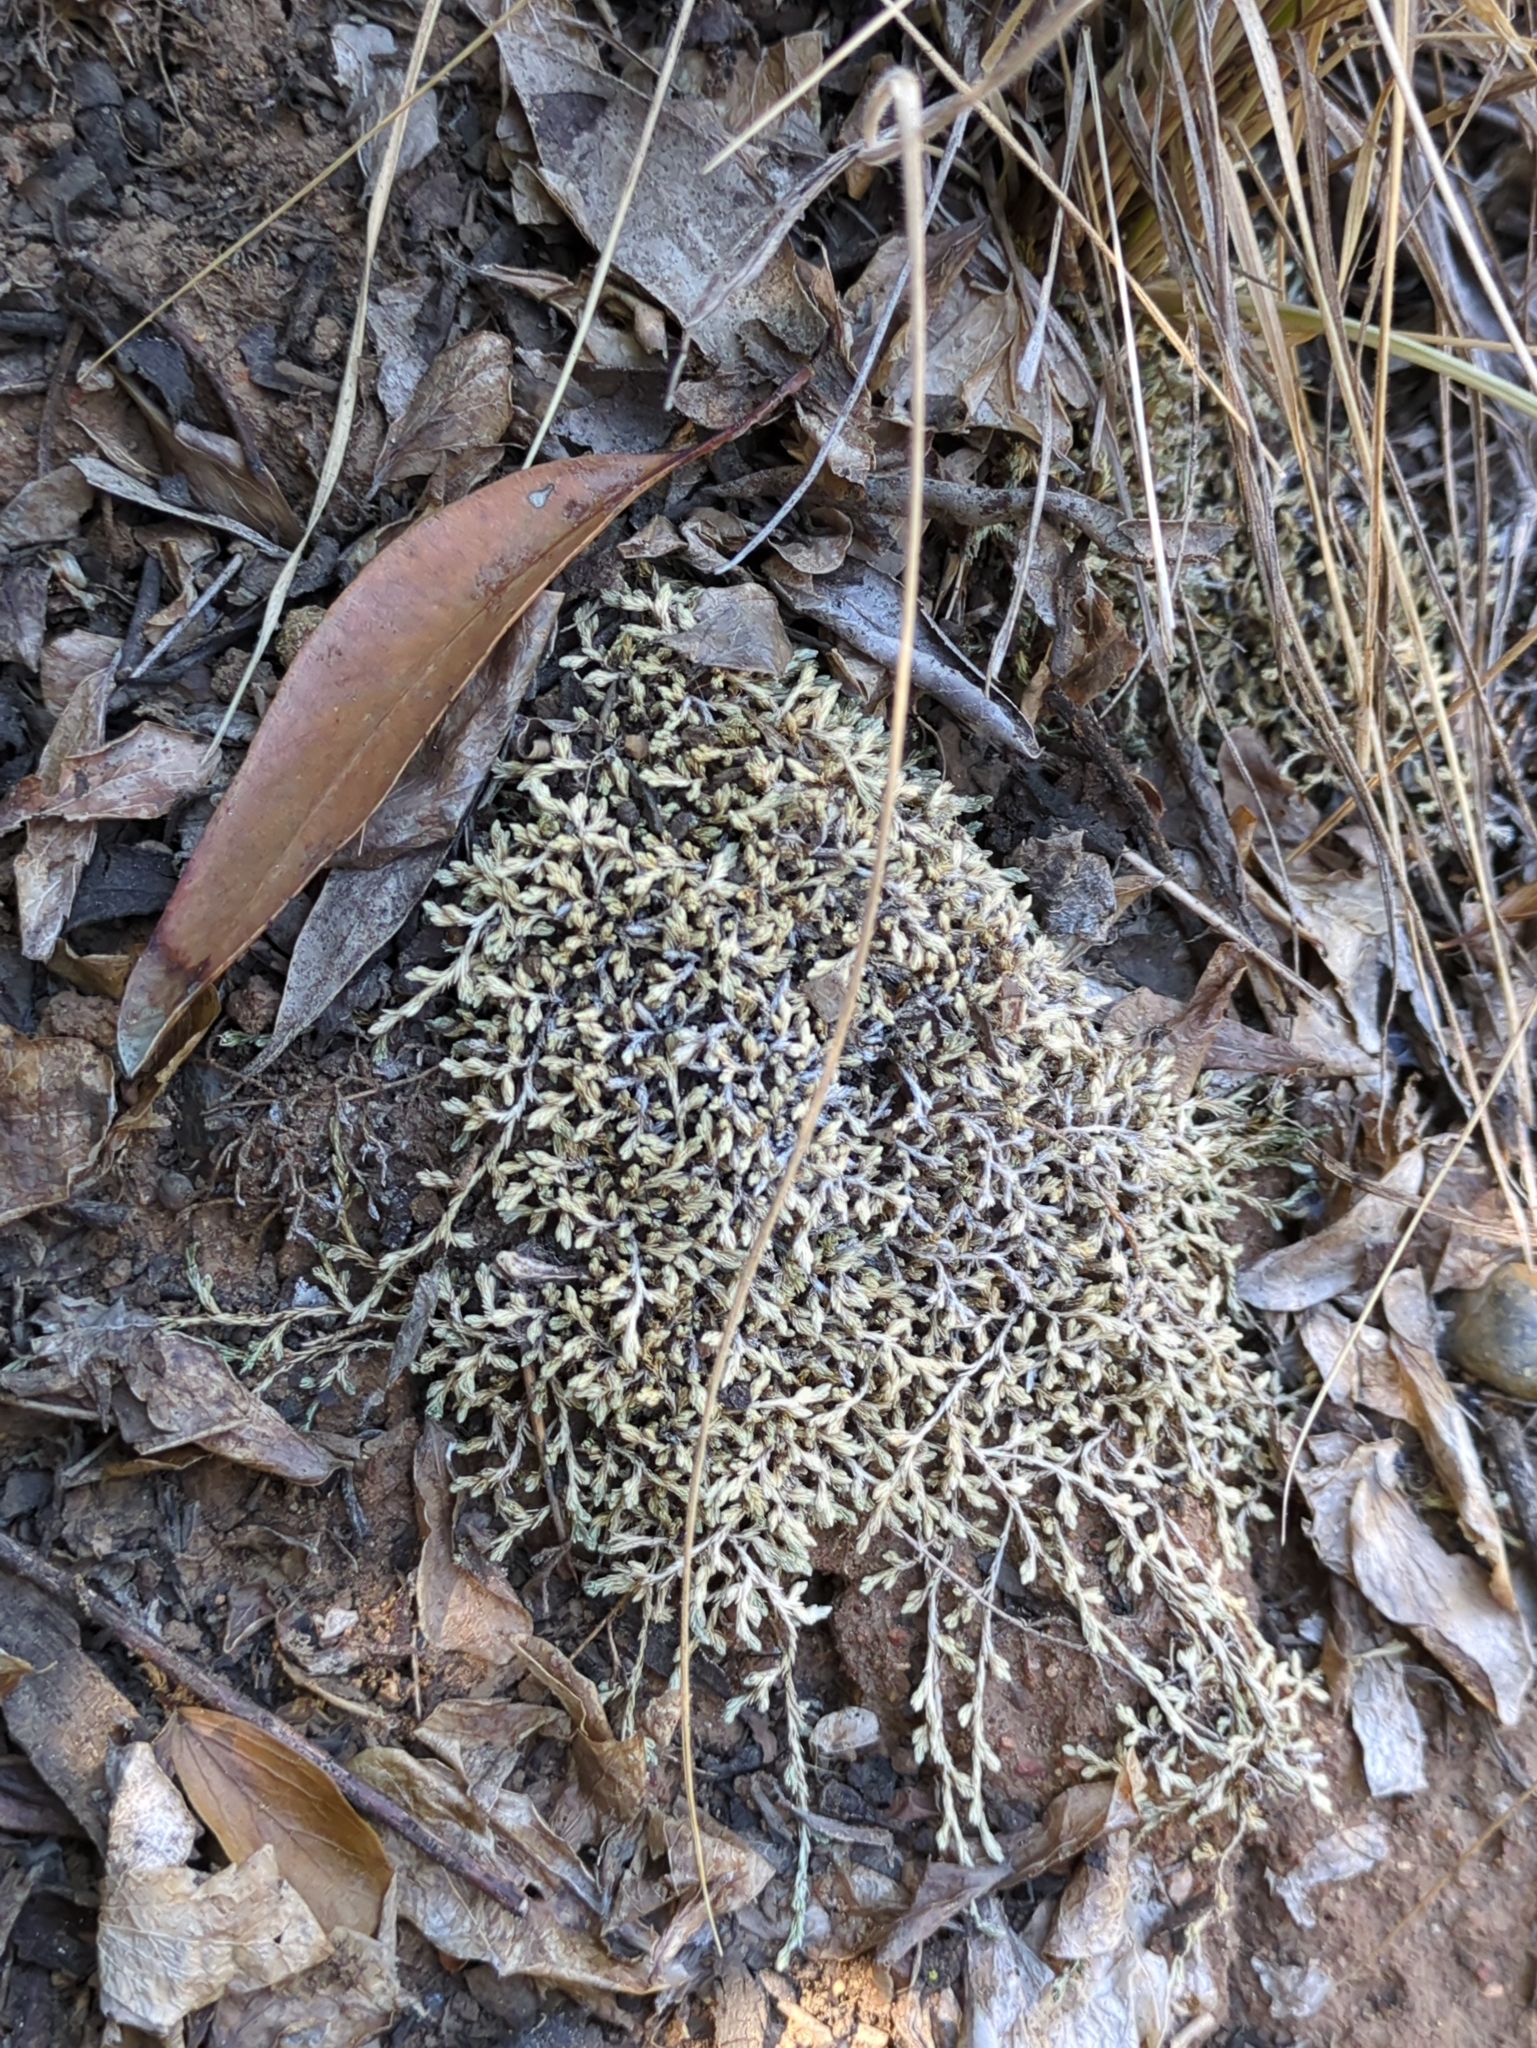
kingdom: Plantae
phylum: Tracheophyta
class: Lycopodiopsida
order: Selaginellales
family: Selaginellaceae
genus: Selaginella
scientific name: Selaginella cinerascens
